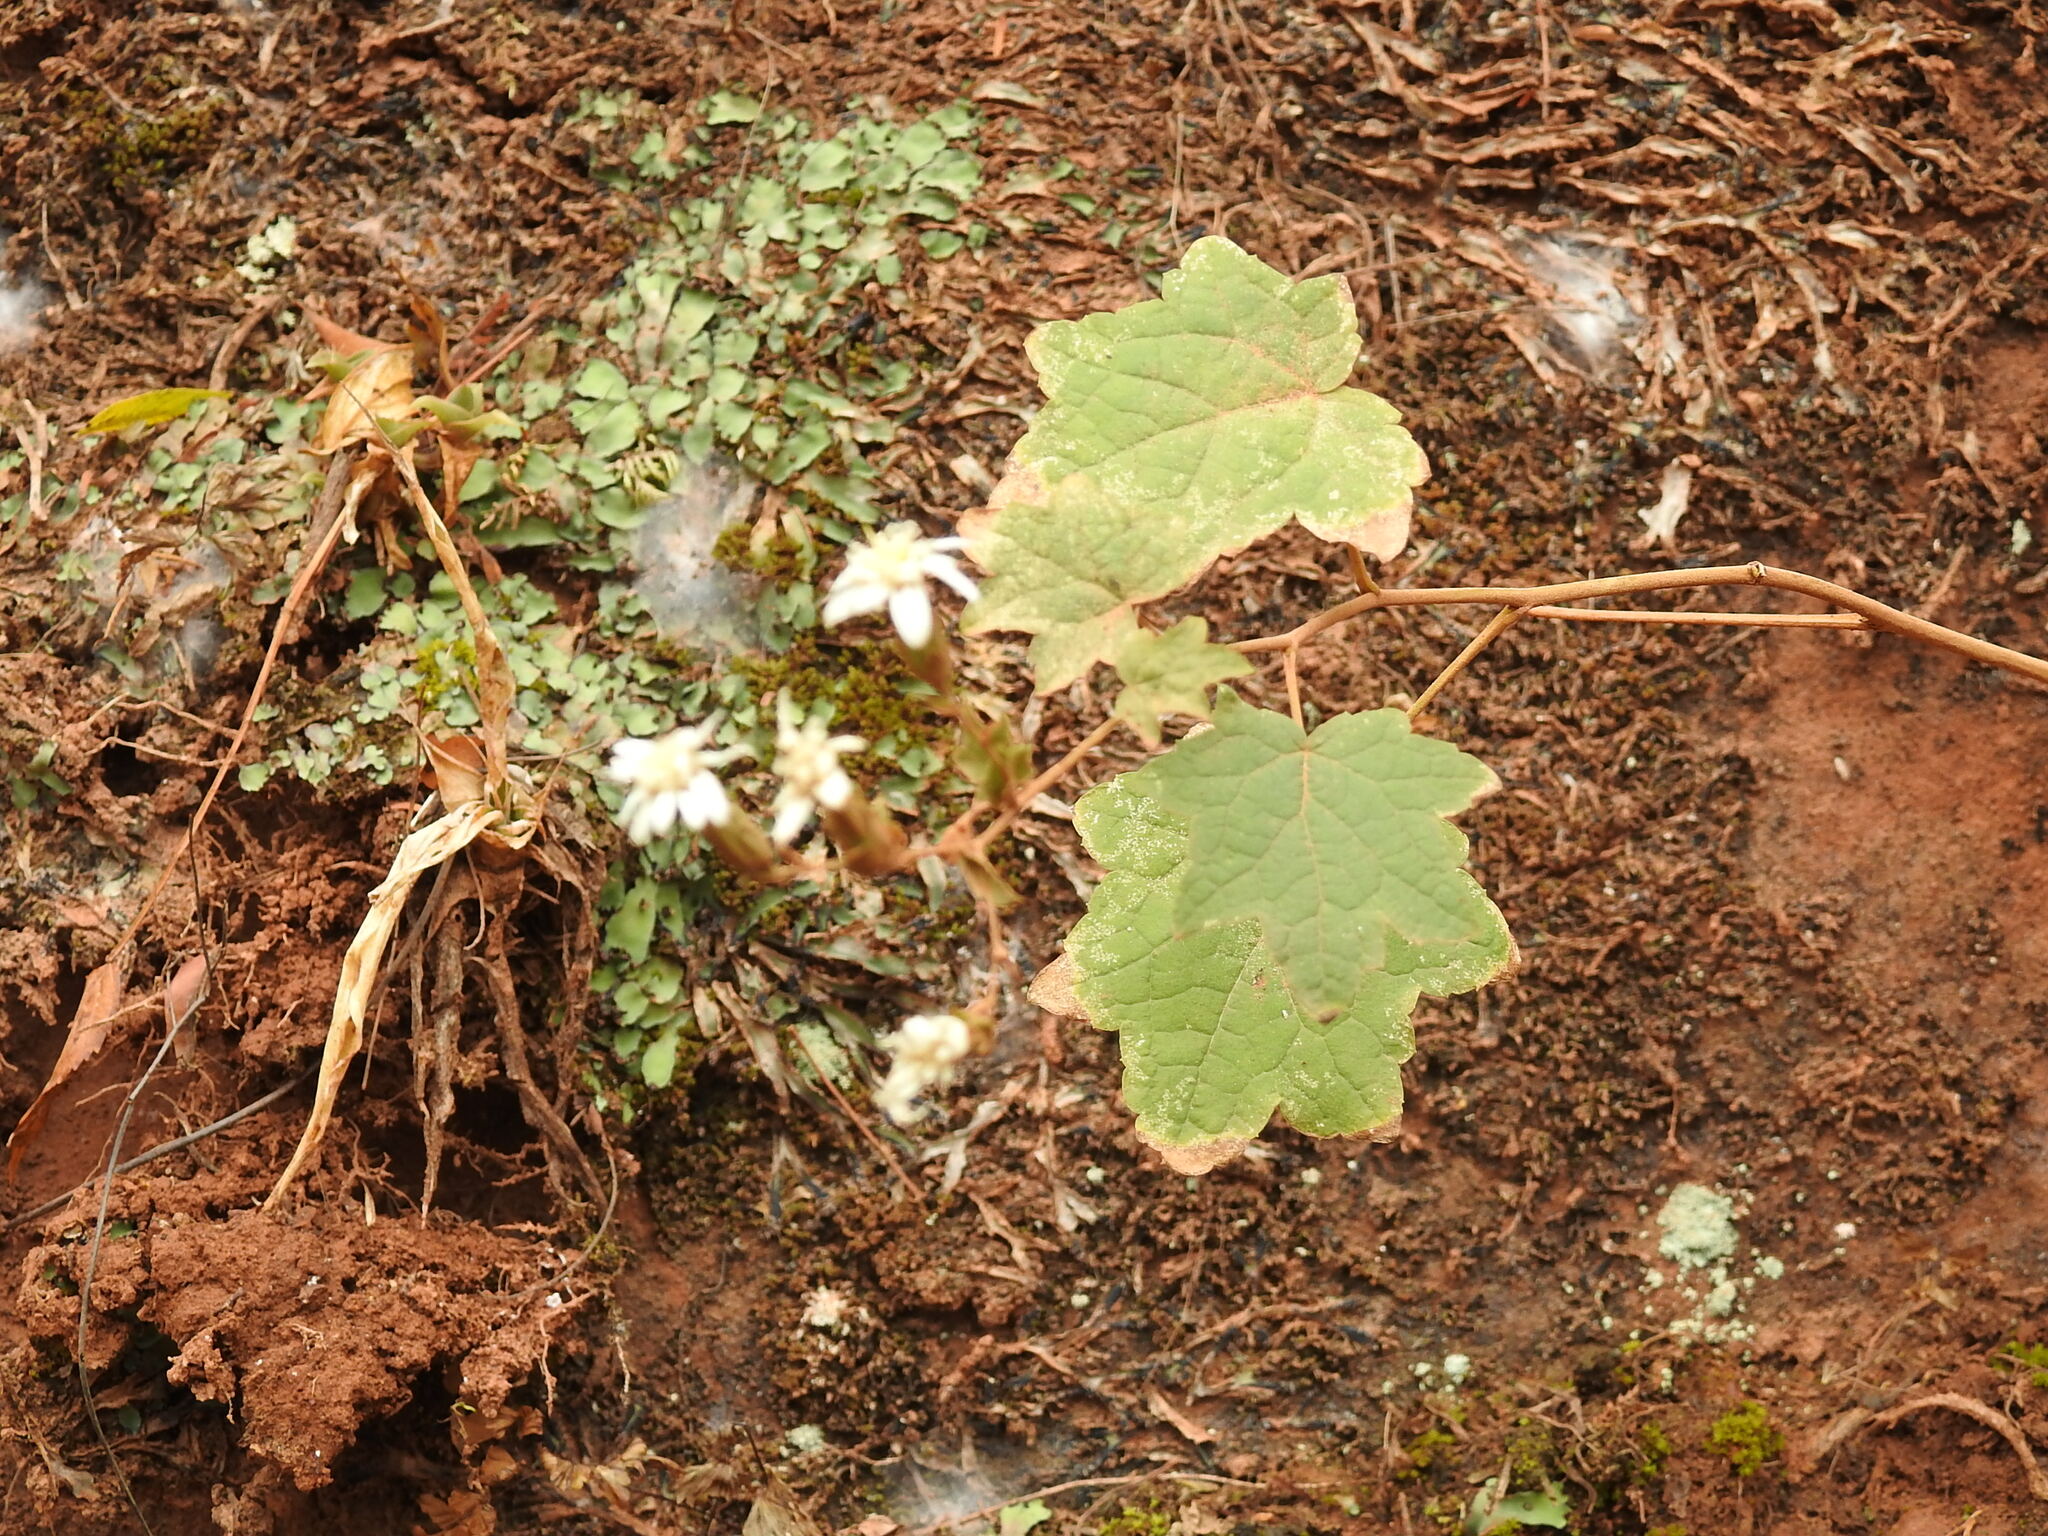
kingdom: Plantae
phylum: Tracheophyta
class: Magnoliopsida
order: Asterales
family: Asteraceae
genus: Jungia
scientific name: Jungia polita
